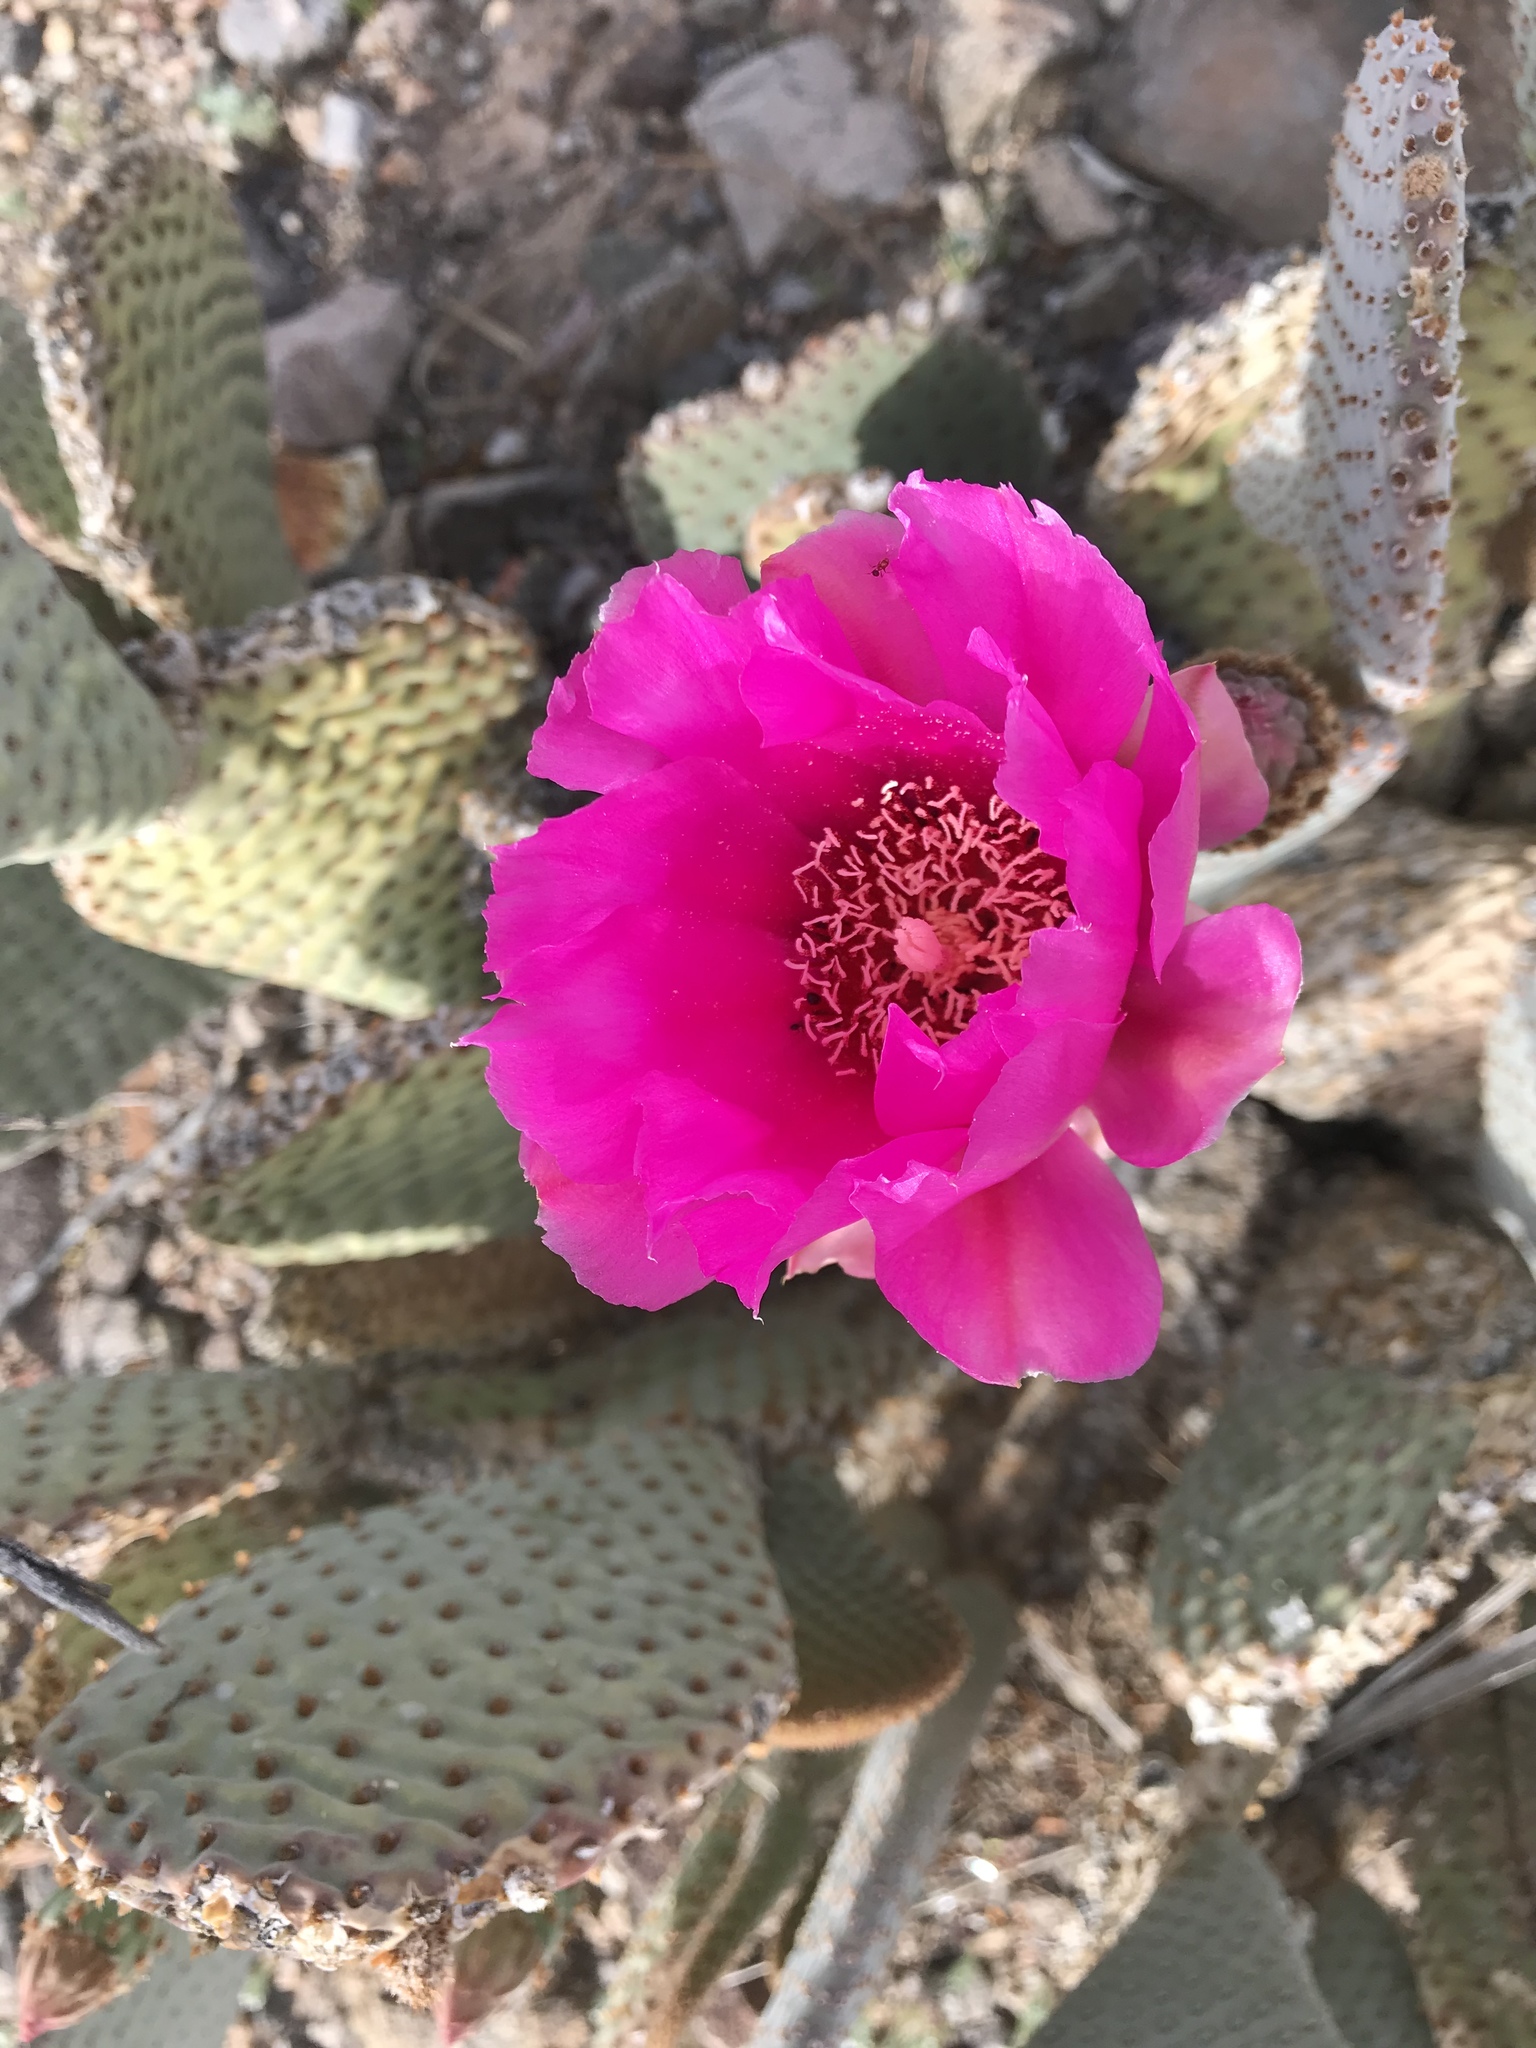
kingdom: Plantae
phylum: Tracheophyta
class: Magnoliopsida
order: Caryophyllales
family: Cactaceae
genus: Opuntia
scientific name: Opuntia basilaris
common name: Beavertail prickly-pear
